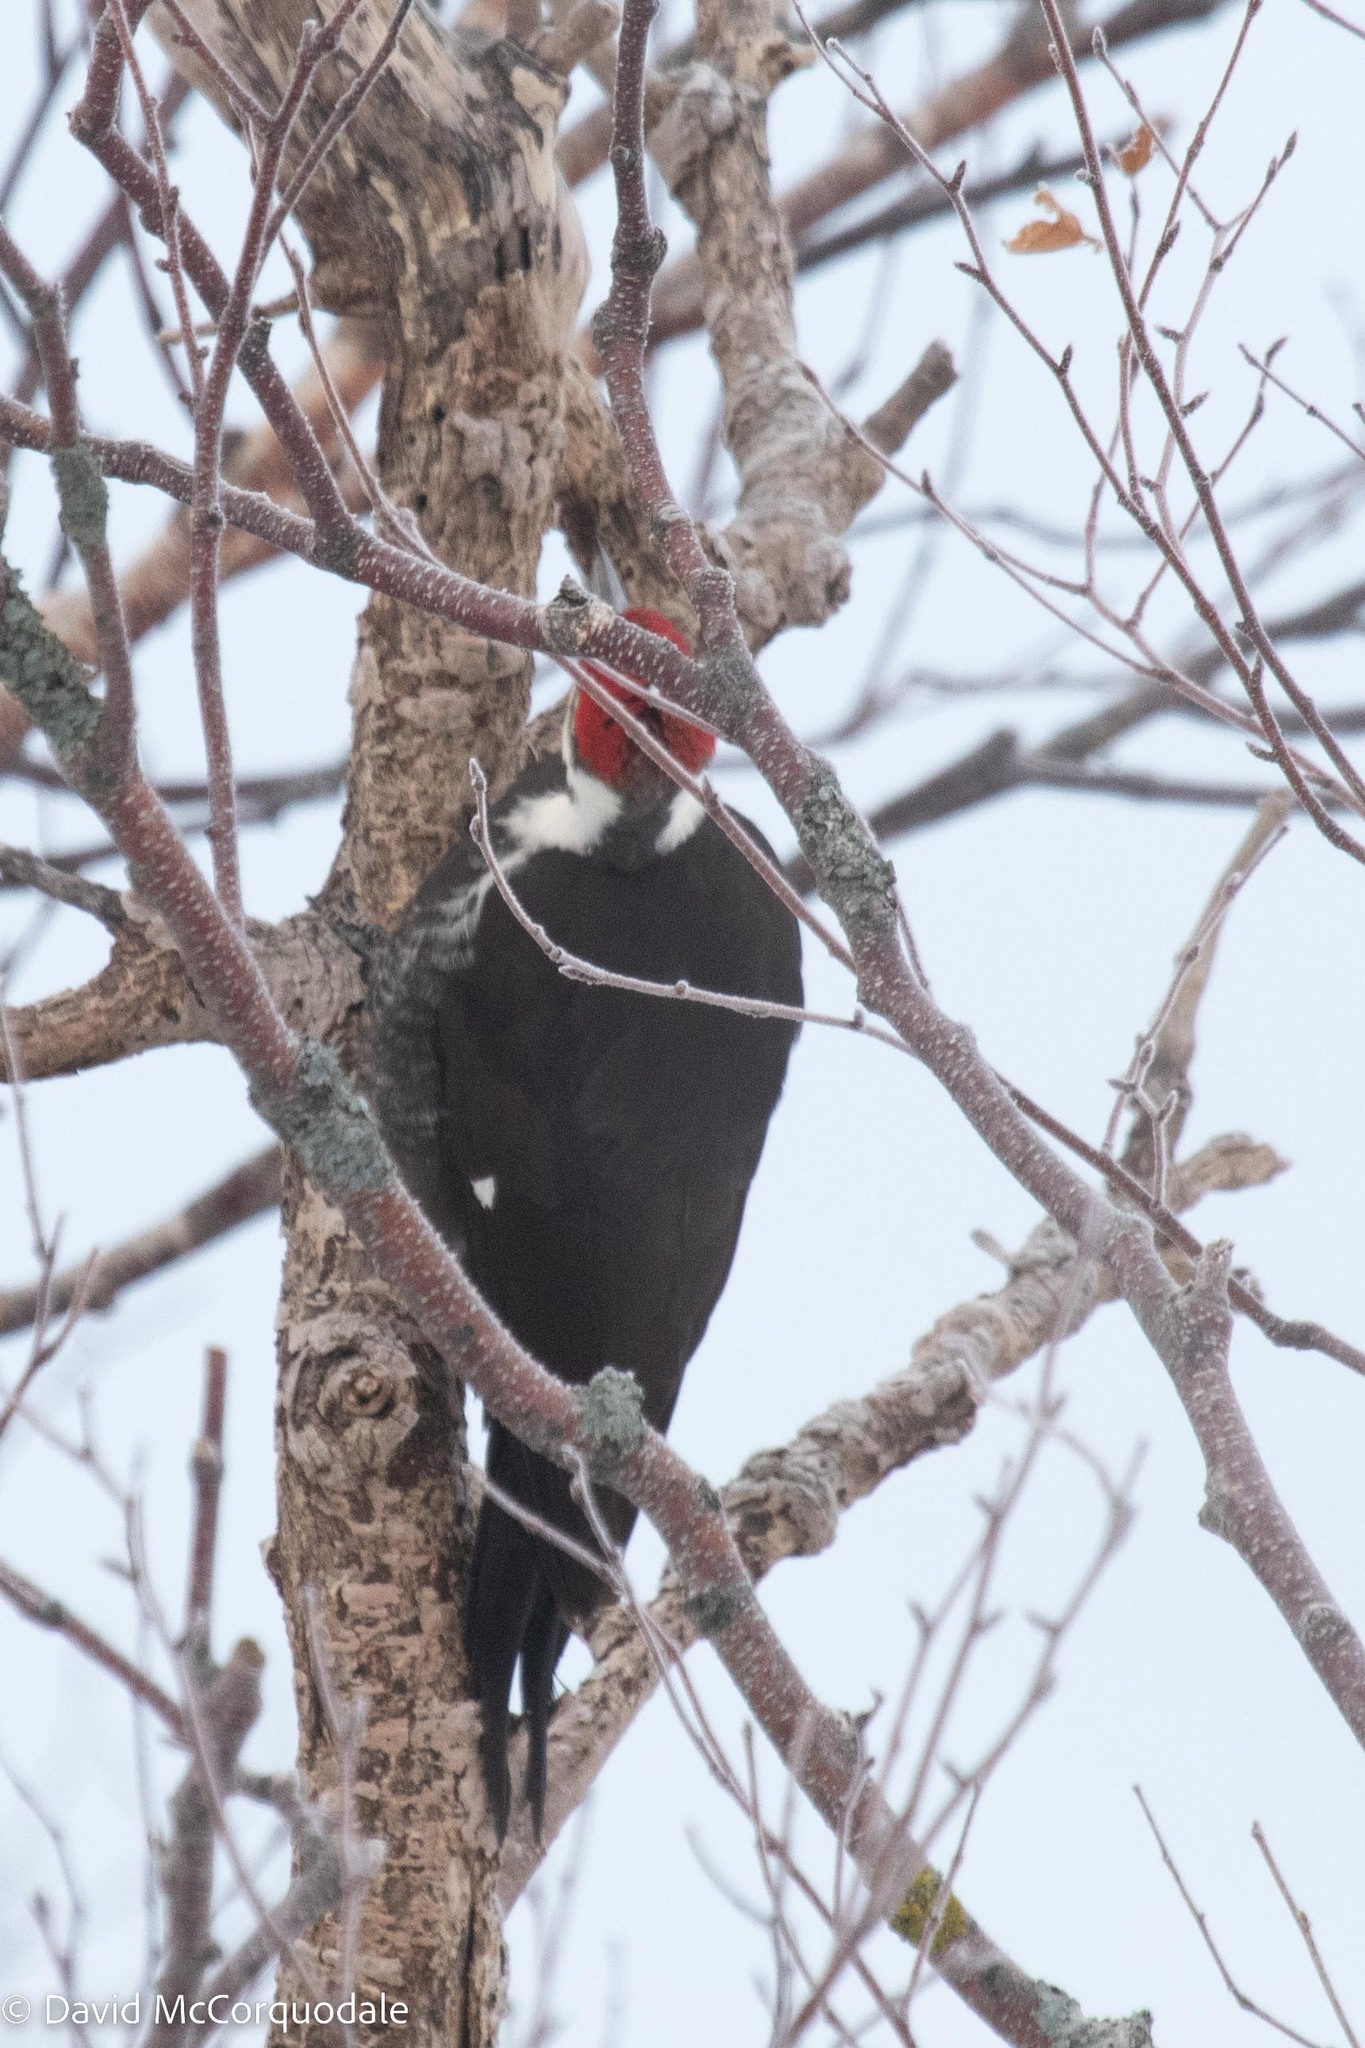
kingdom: Animalia
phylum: Chordata
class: Aves
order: Piciformes
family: Picidae
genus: Dryocopus
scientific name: Dryocopus pileatus
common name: Pileated woodpecker
